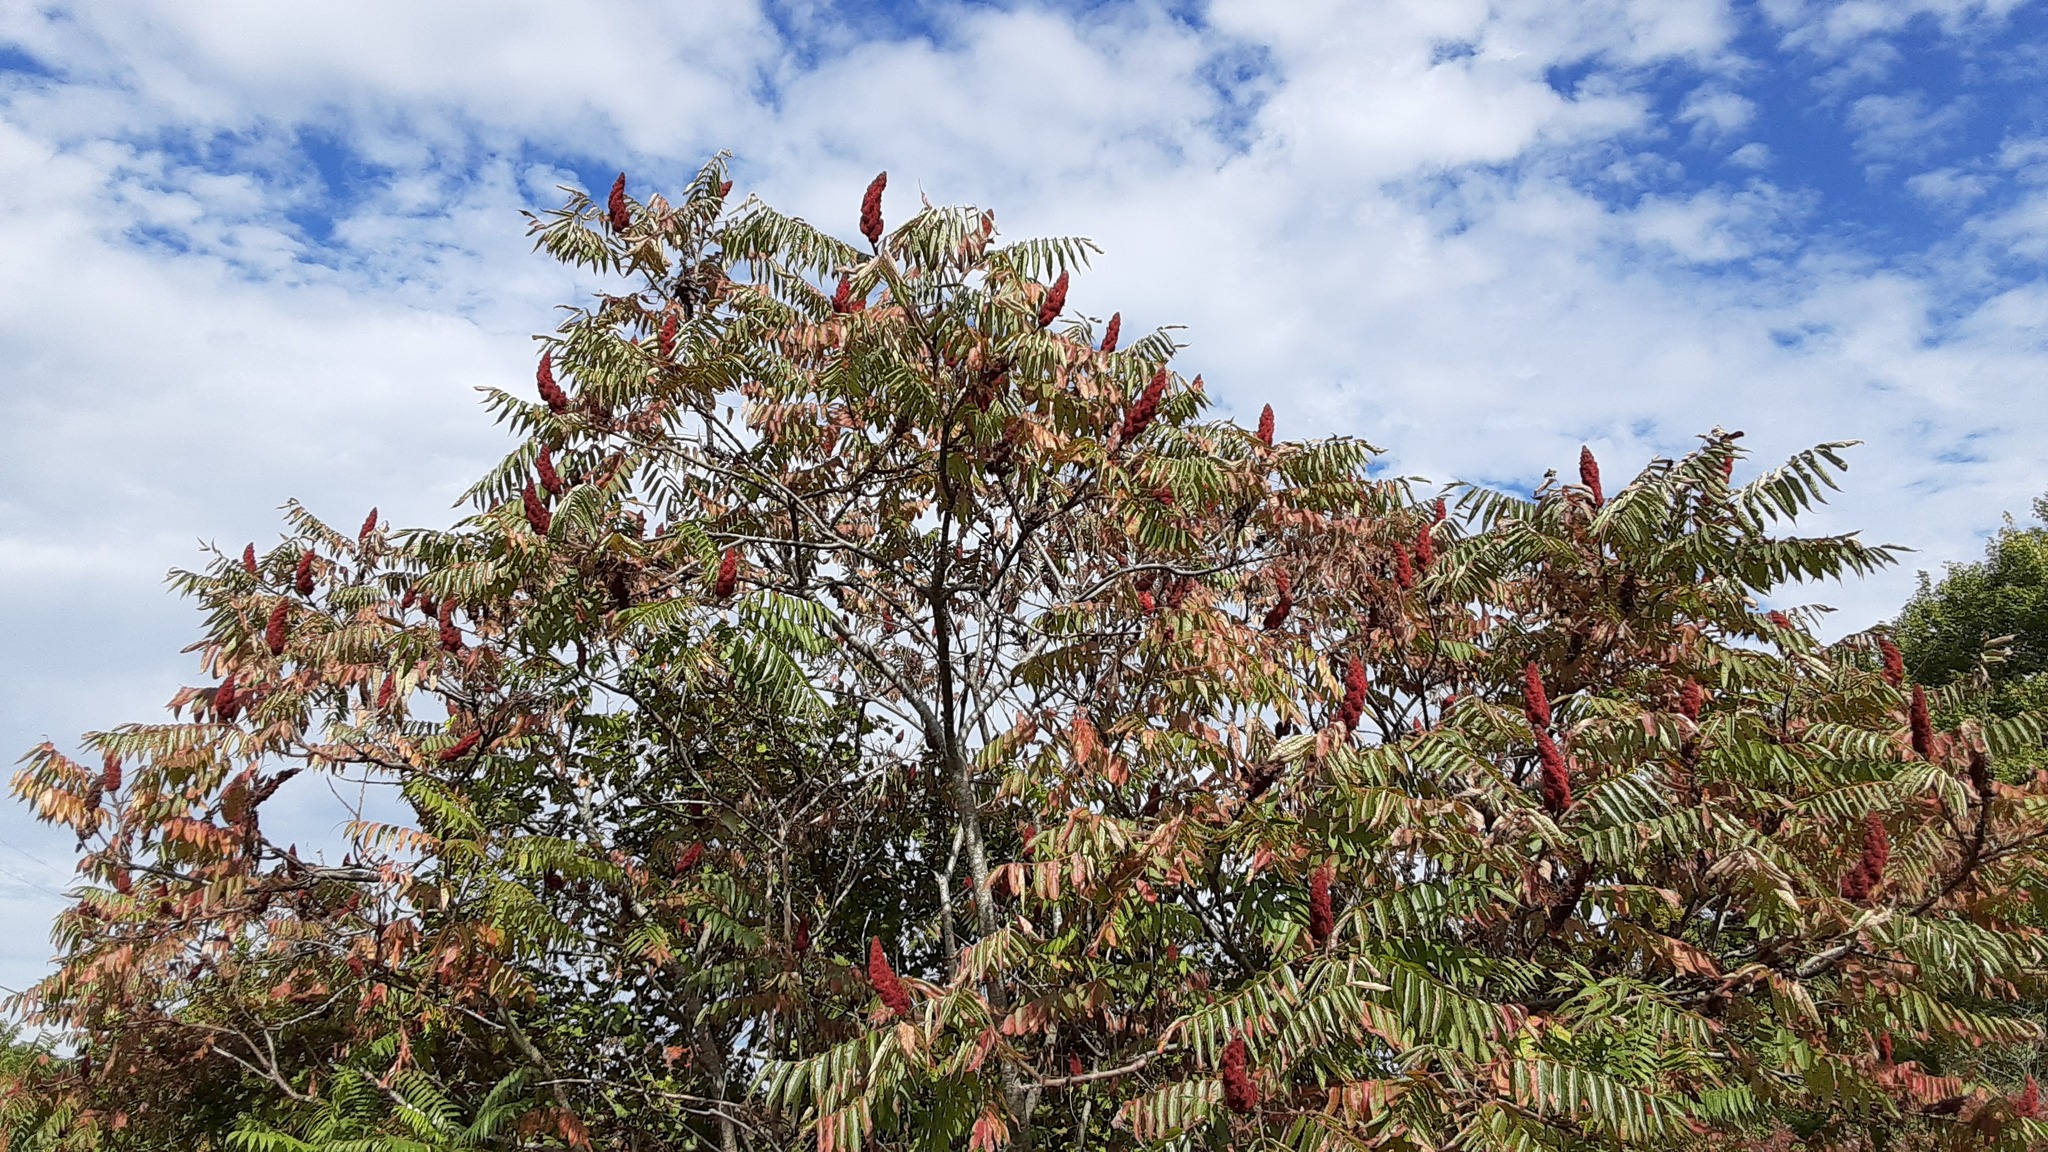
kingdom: Plantae
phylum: Tracheophyta
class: Magnoliopsida
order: Sapindales
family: Anacardiaceae
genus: Rhus
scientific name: Rhus typhina
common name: Staghorn sumac
